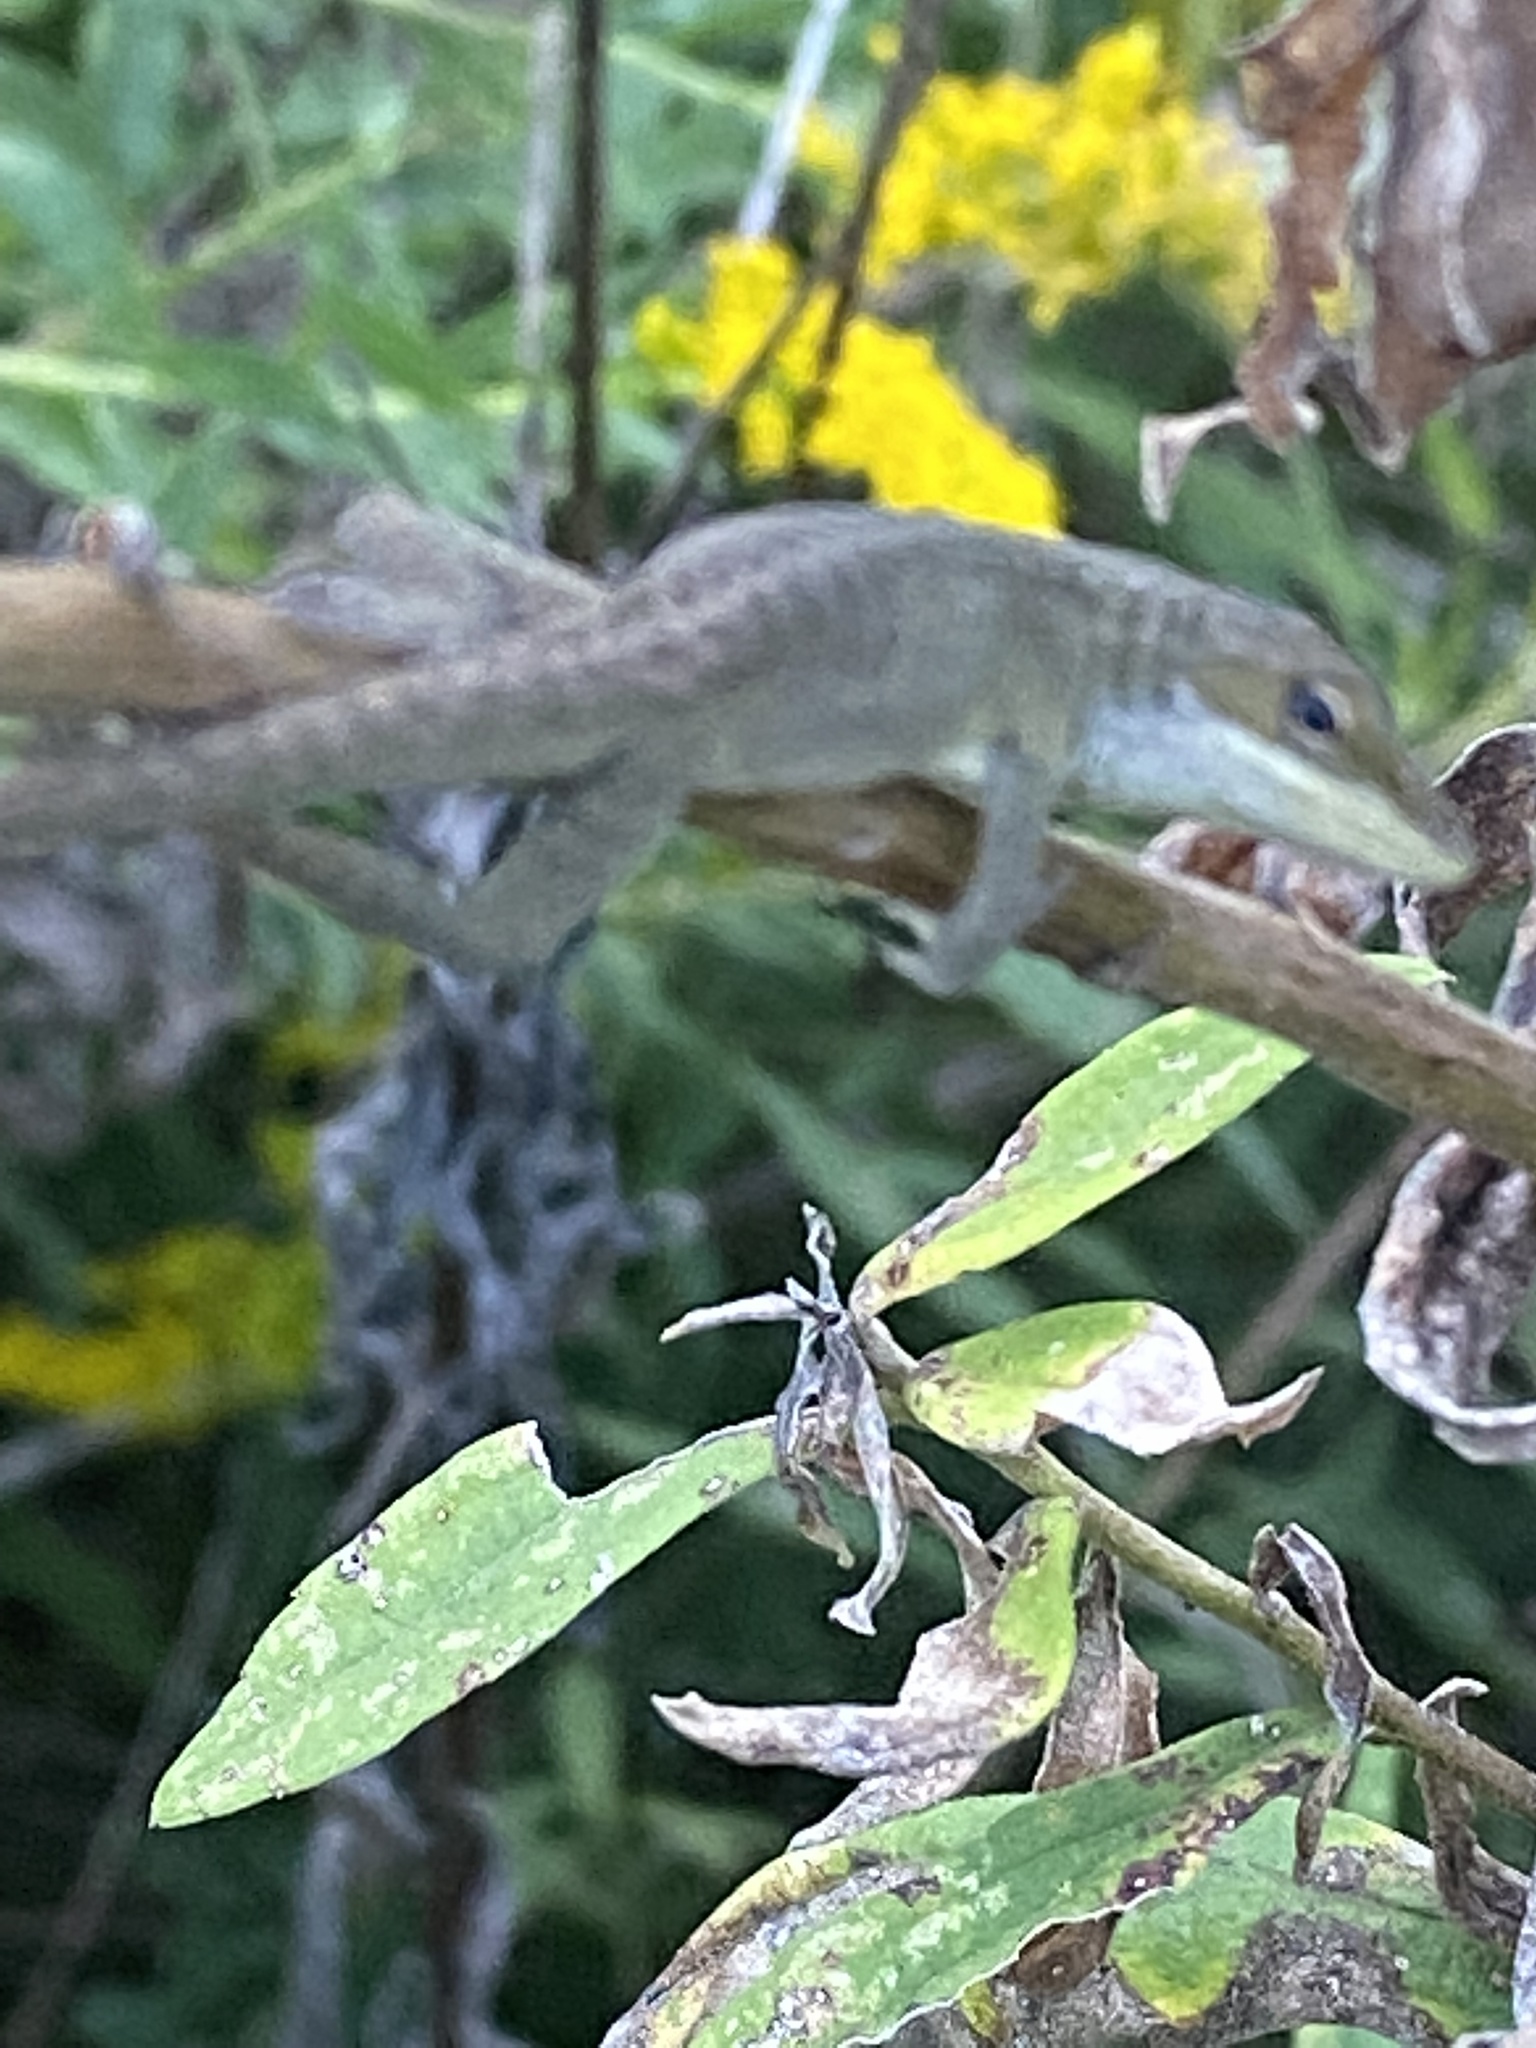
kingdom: Animalia
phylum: Chordata
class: Squamata
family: Dactyloidae
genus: Anolis
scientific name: Anolis carolinensis
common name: Green anole
